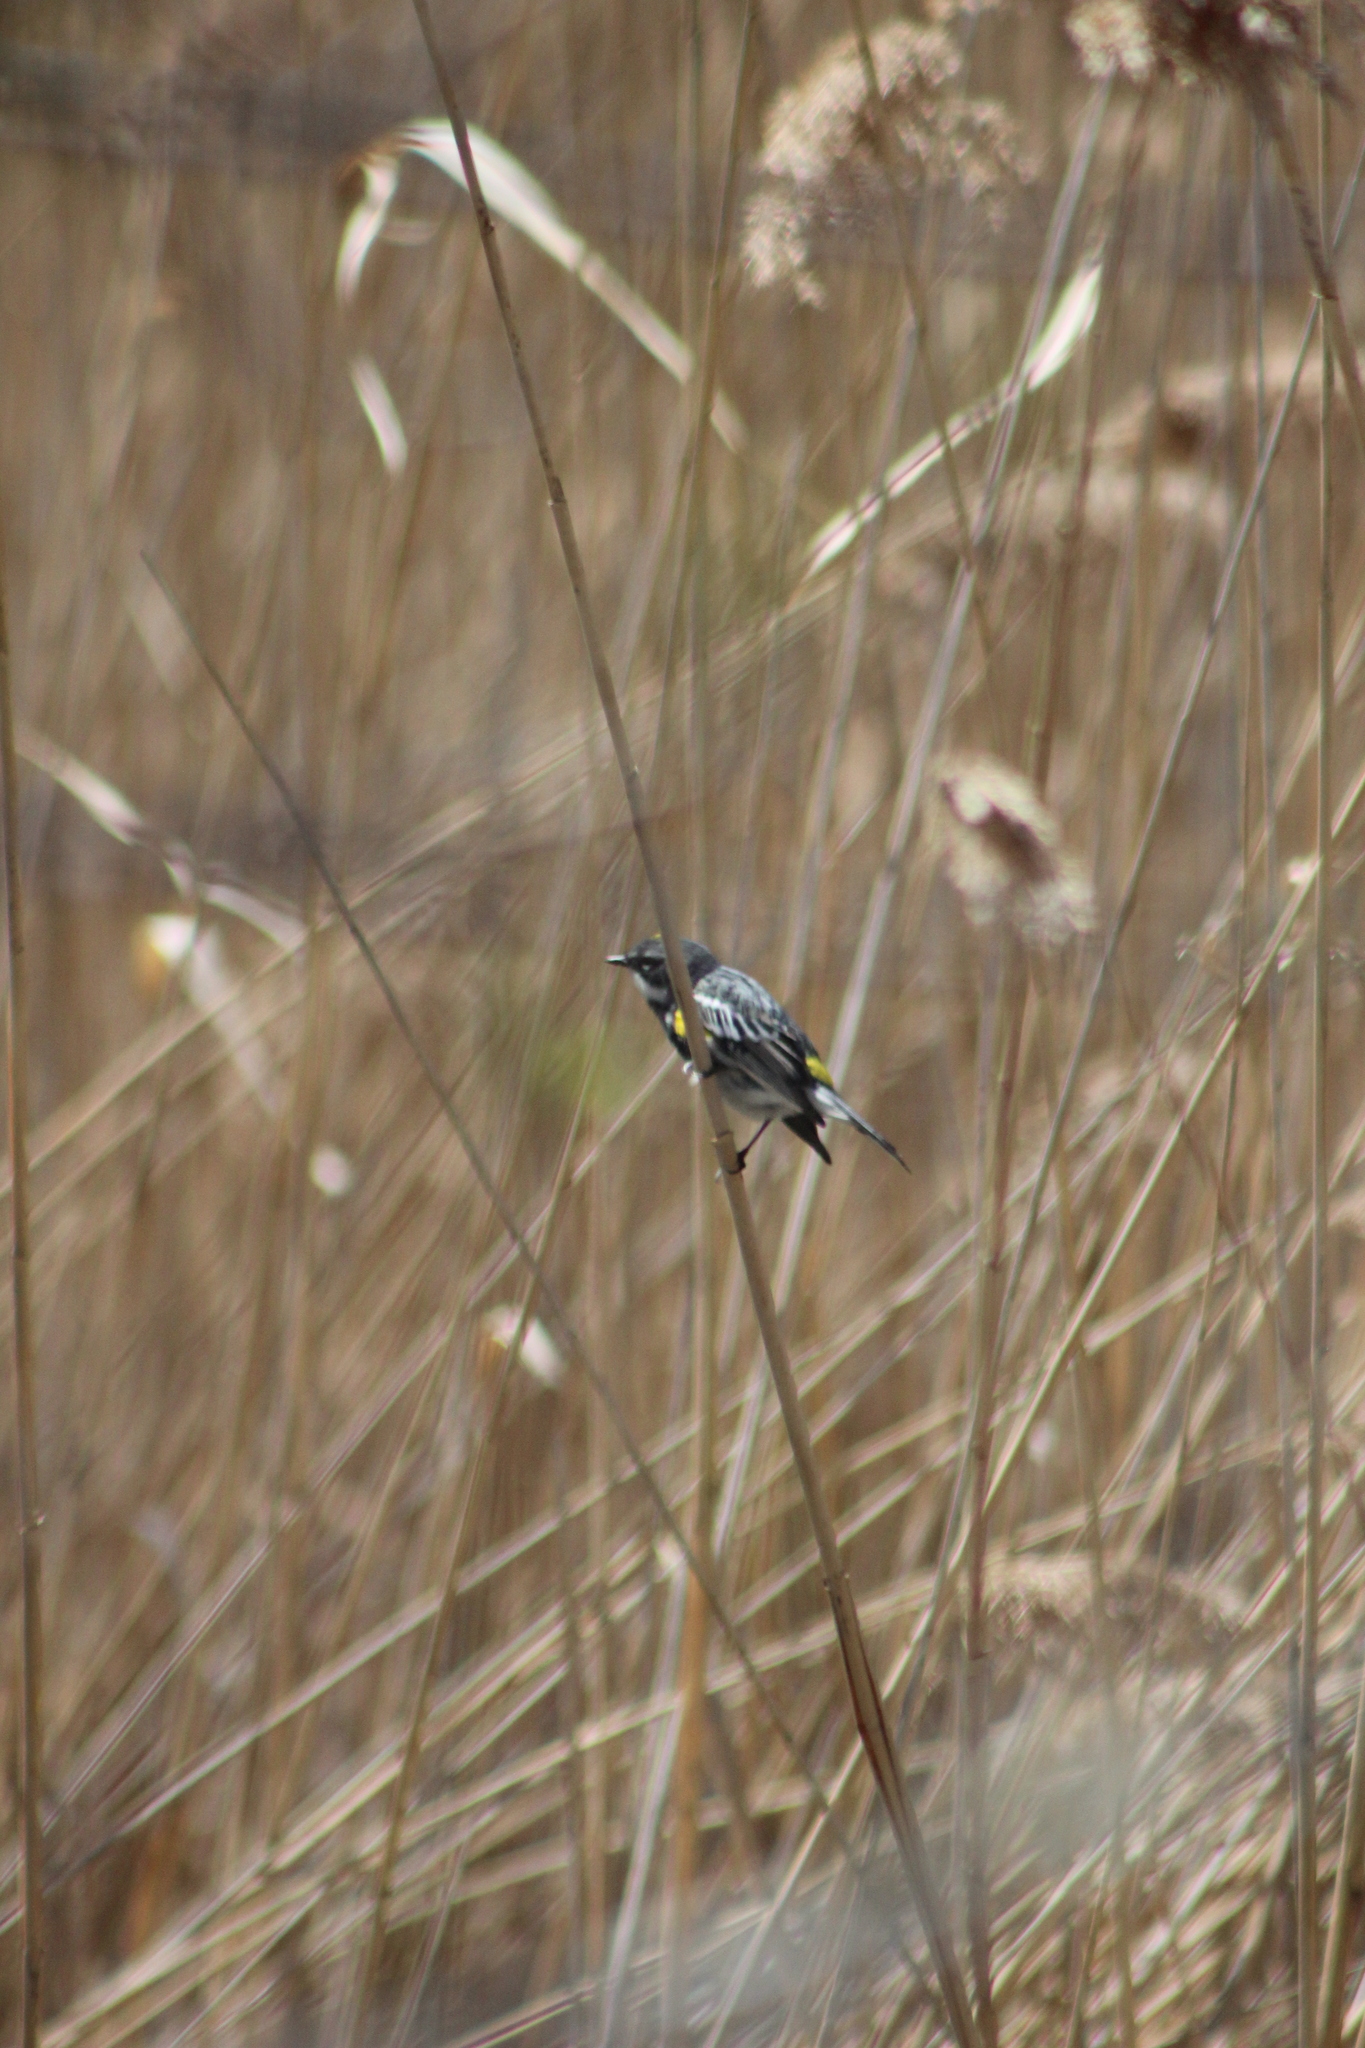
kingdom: Animalia
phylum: Chordata
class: Aves
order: Passeriformes
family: Parulidae
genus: Setophaga
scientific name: Setophaga coronata
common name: Myrtle warbler
